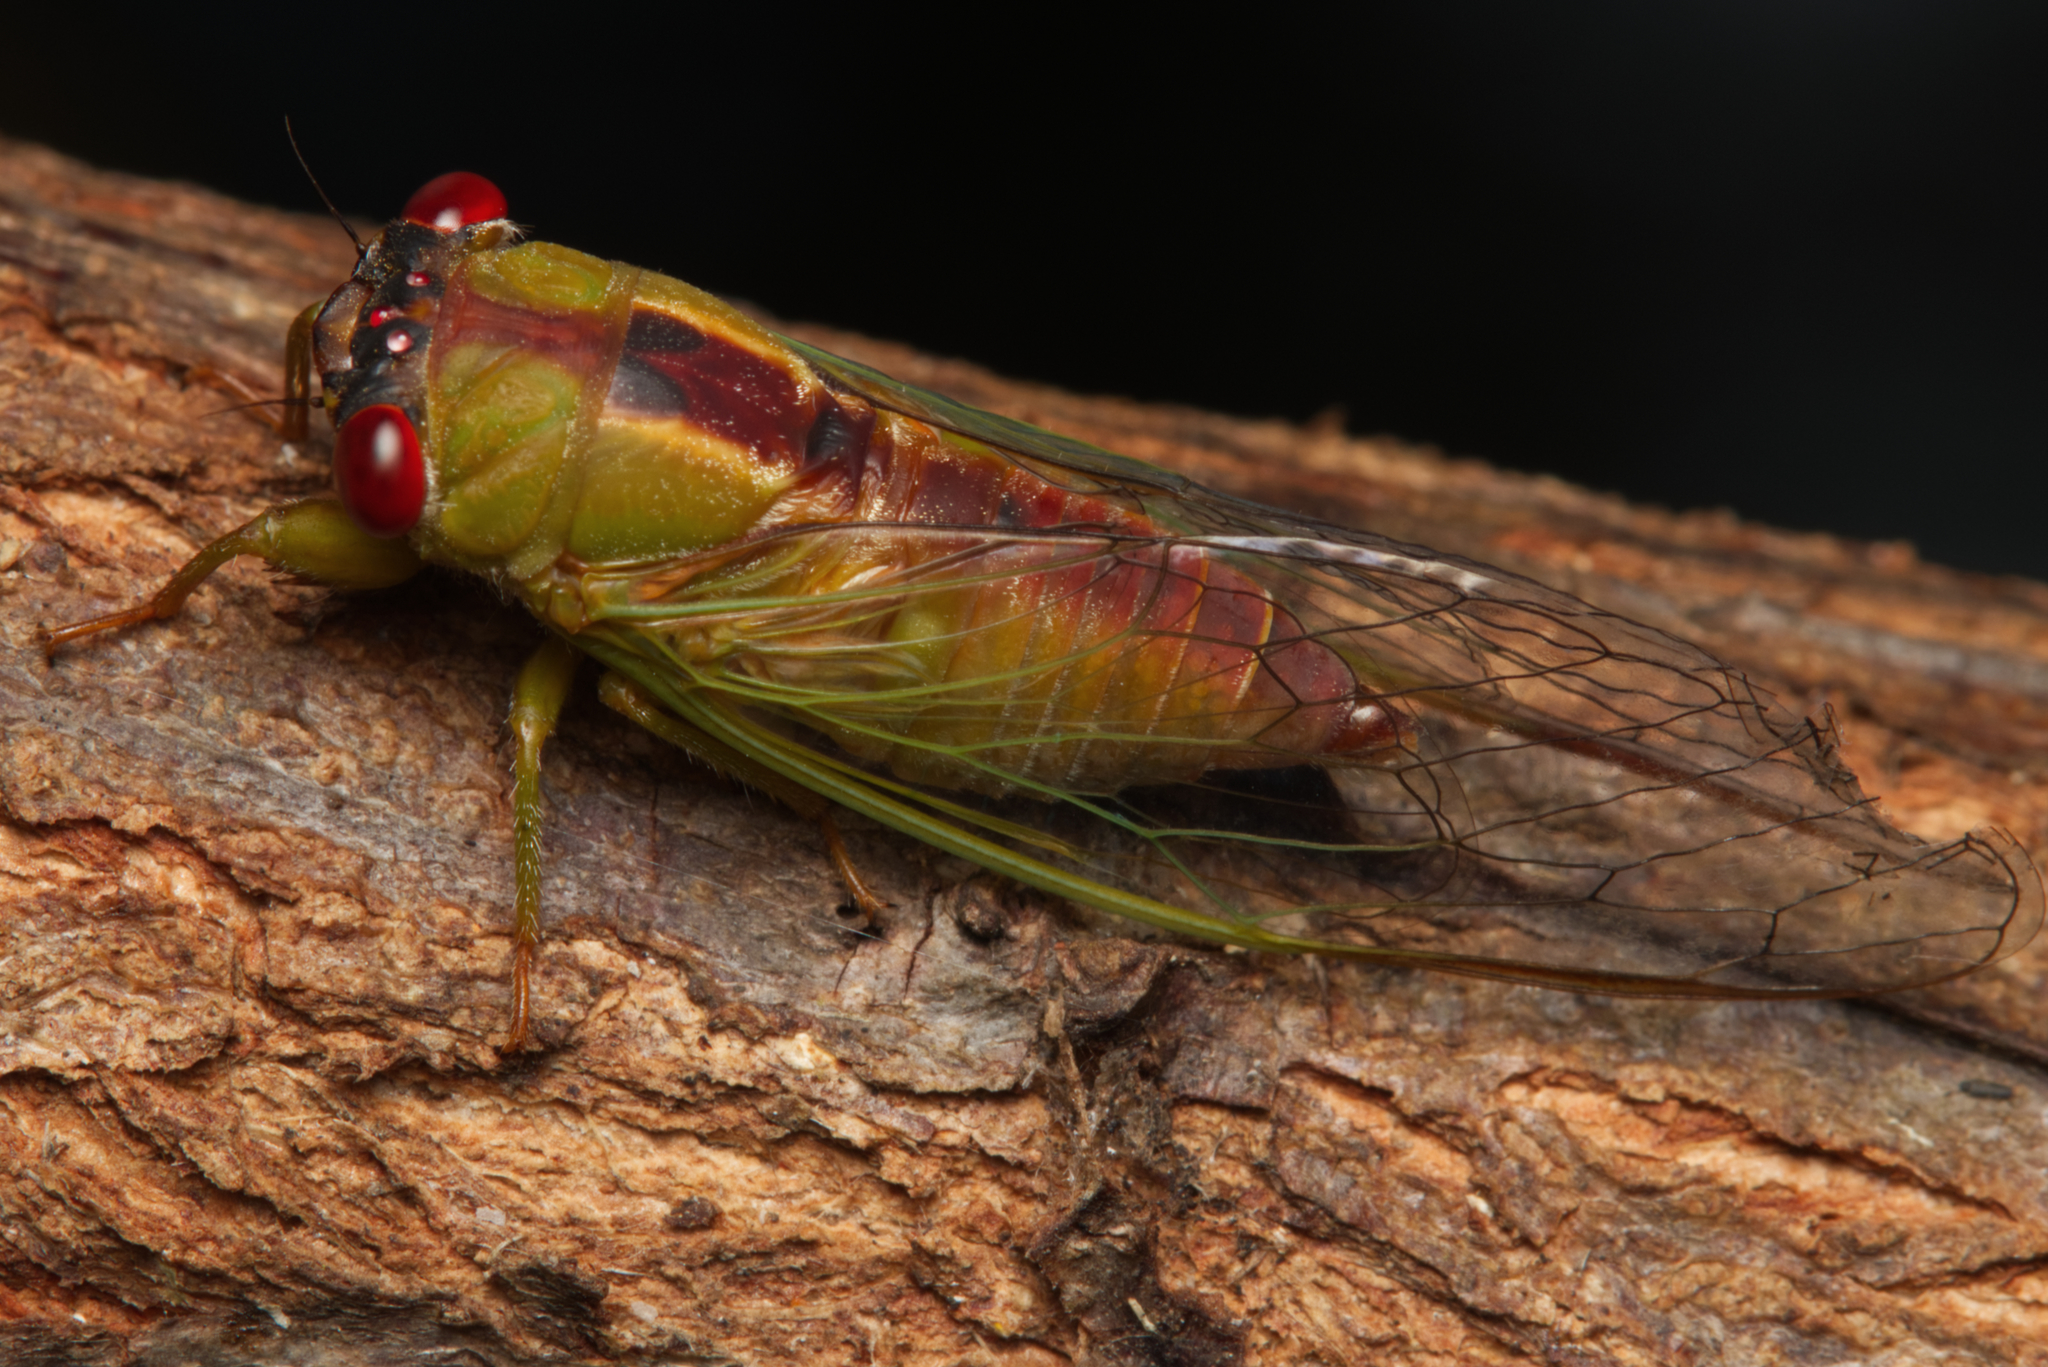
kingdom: Animalia
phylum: Arthropoda
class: Insecta
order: Hemiptera
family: Cicadidae
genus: Ewartia
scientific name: Ewartia oldfieldi
